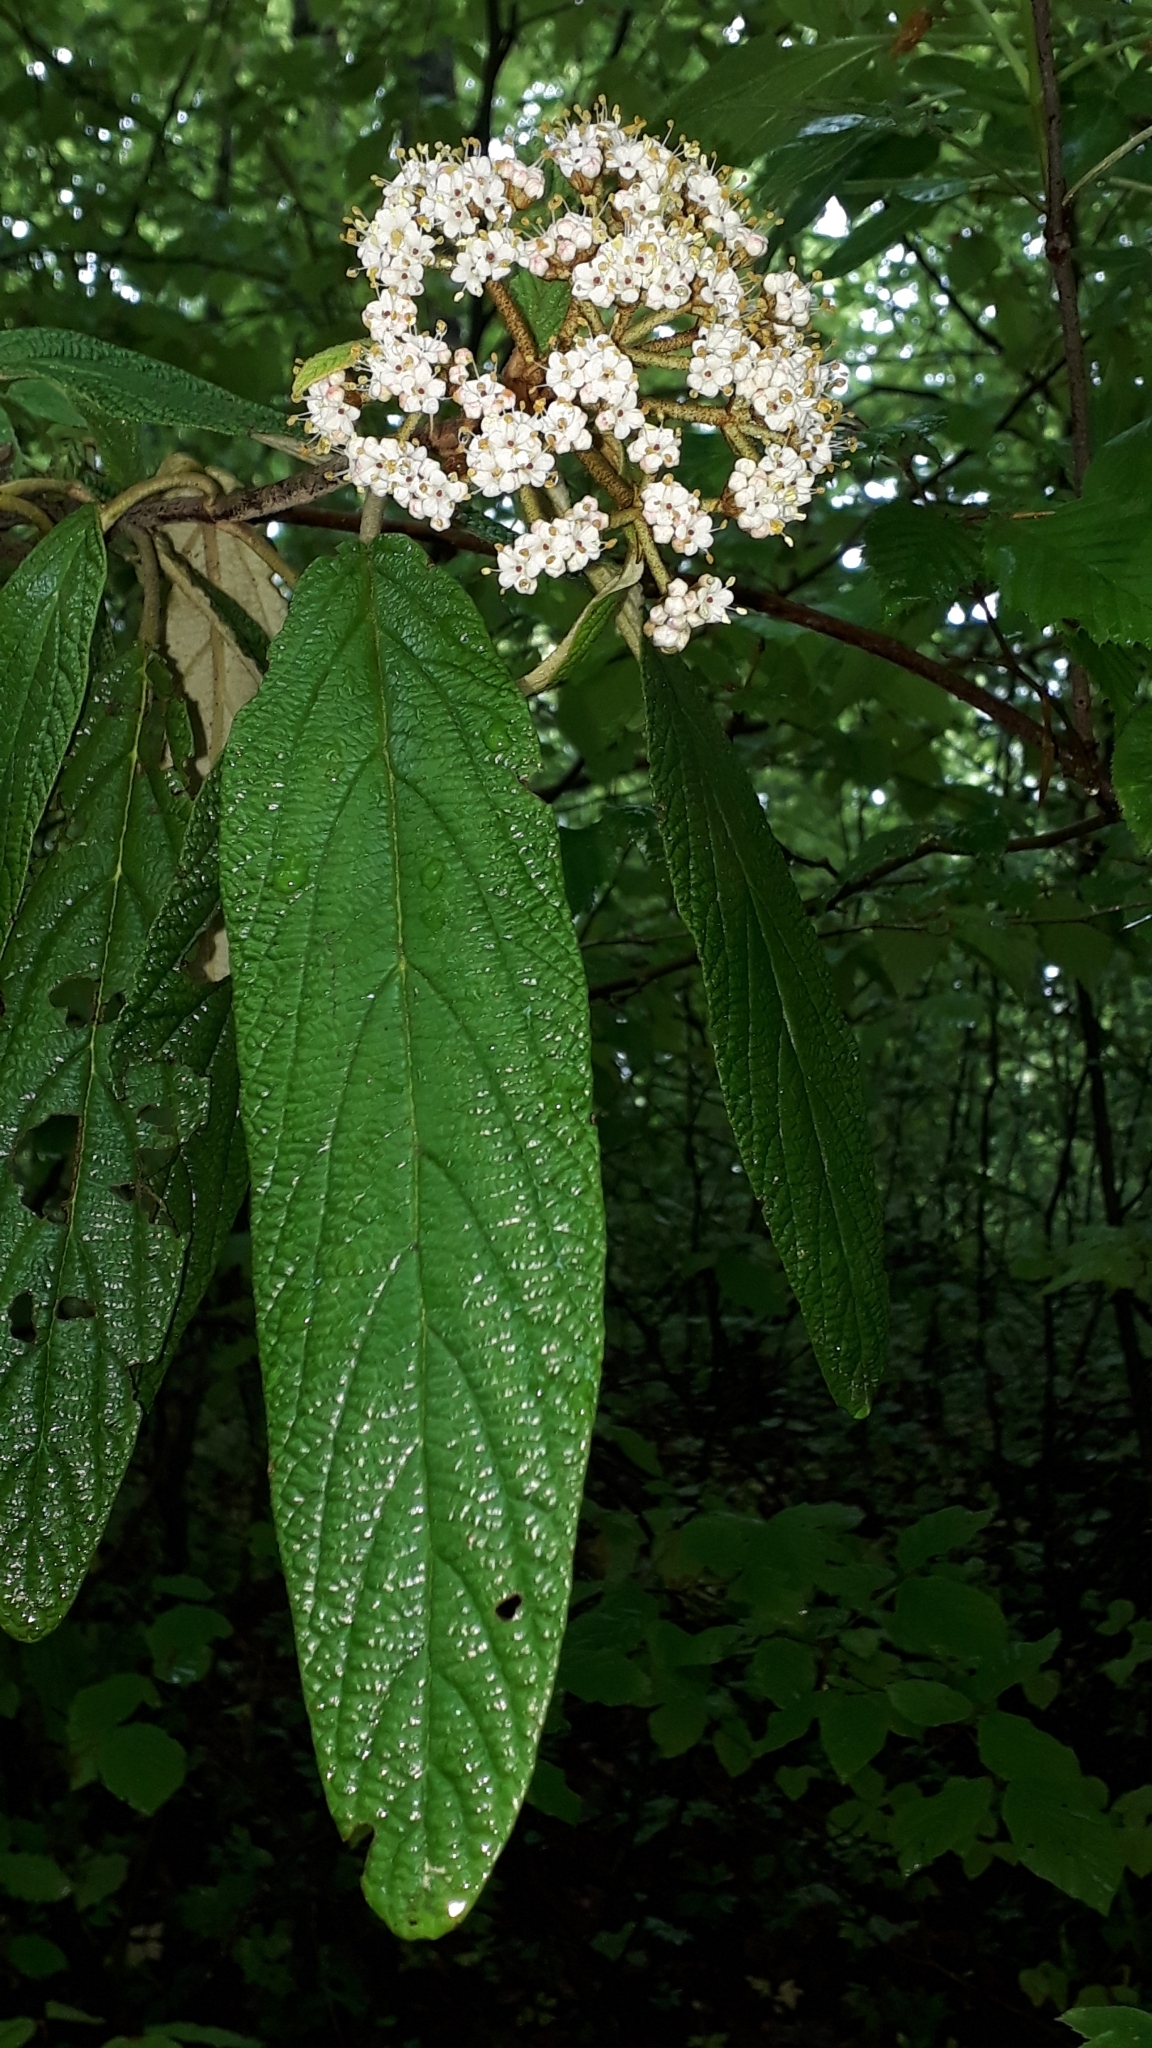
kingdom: Plantae
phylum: Tracheophyta
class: Magnoliopsida
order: Dipsacales
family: Viburnaceae
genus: Viburnum
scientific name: Viburnum rhytidophyllum
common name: Wrinkled viburnum
